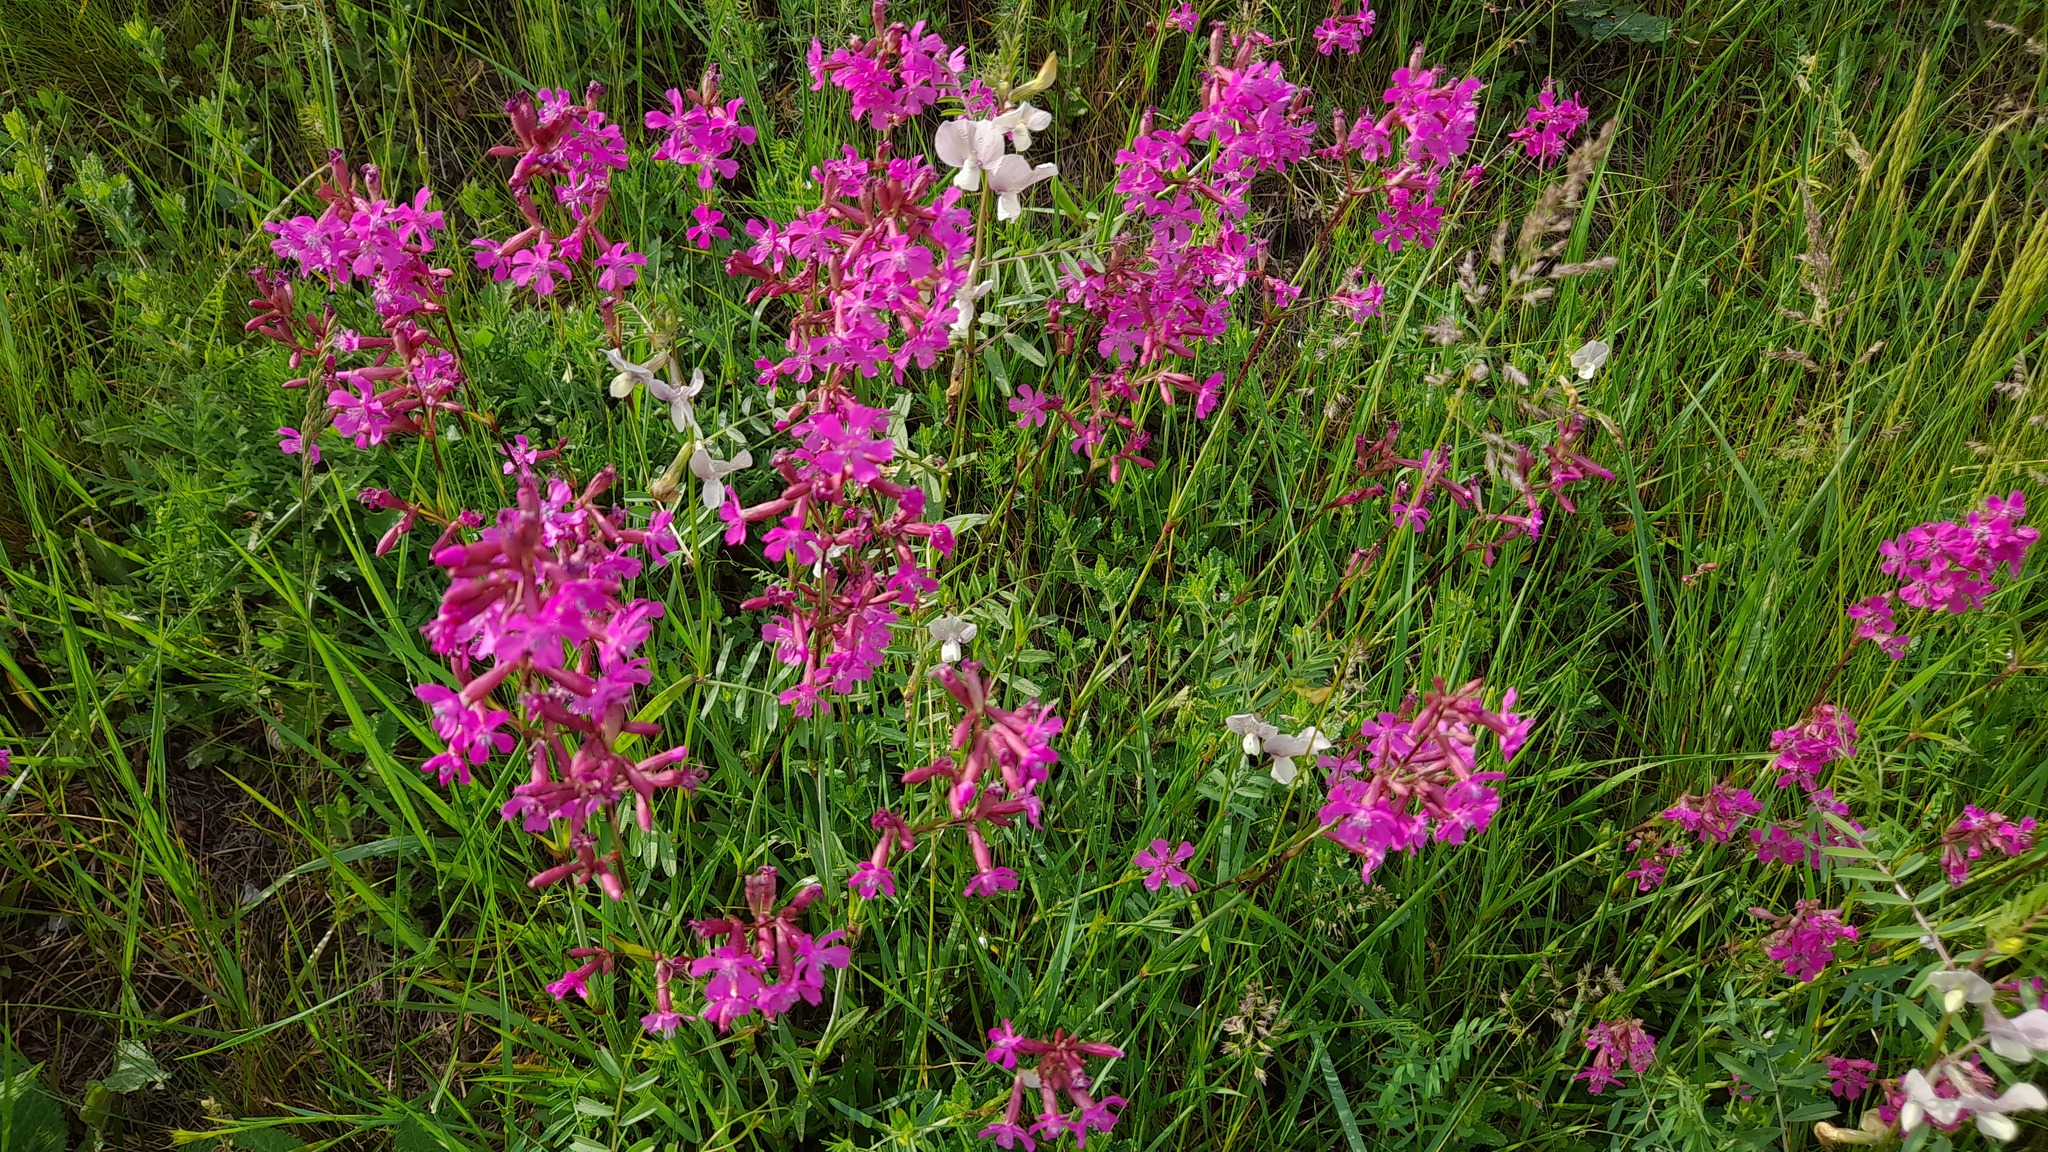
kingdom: Plantae
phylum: Tracheophyta
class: Magnoliopsida
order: Caryophyllales
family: Caryophyllaceae
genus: Viscaria
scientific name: Viscaria vulgaris
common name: Clammy campion
